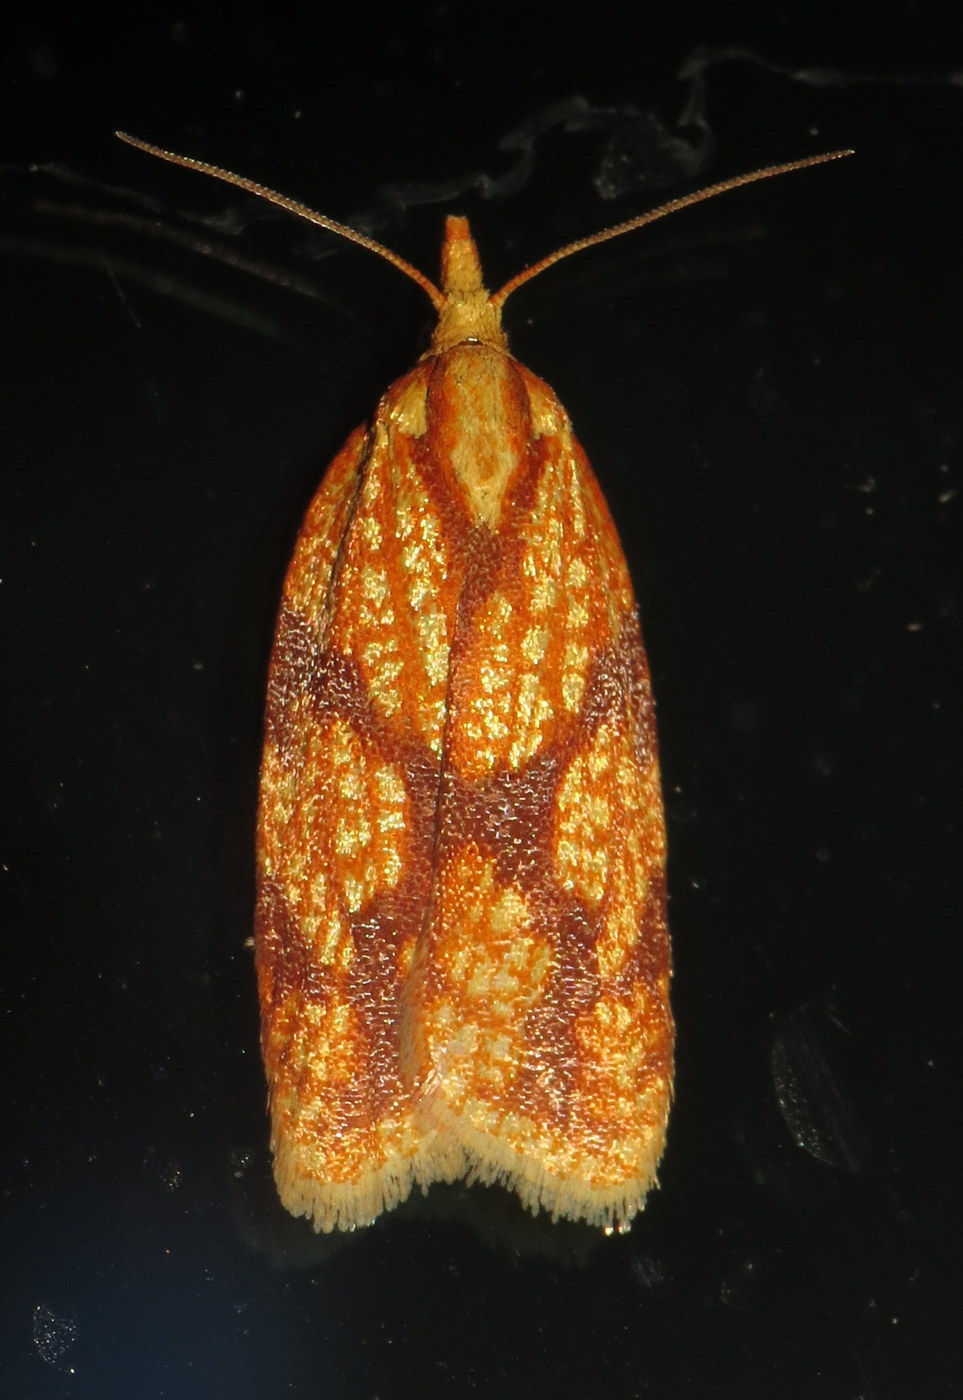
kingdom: Animalia
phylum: Arthropoda
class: Insecta
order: Lepidoptera
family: Tortricidae
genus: Sparganothis
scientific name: Sparganothis sulfureana
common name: Sparganothis fruitworm moth
